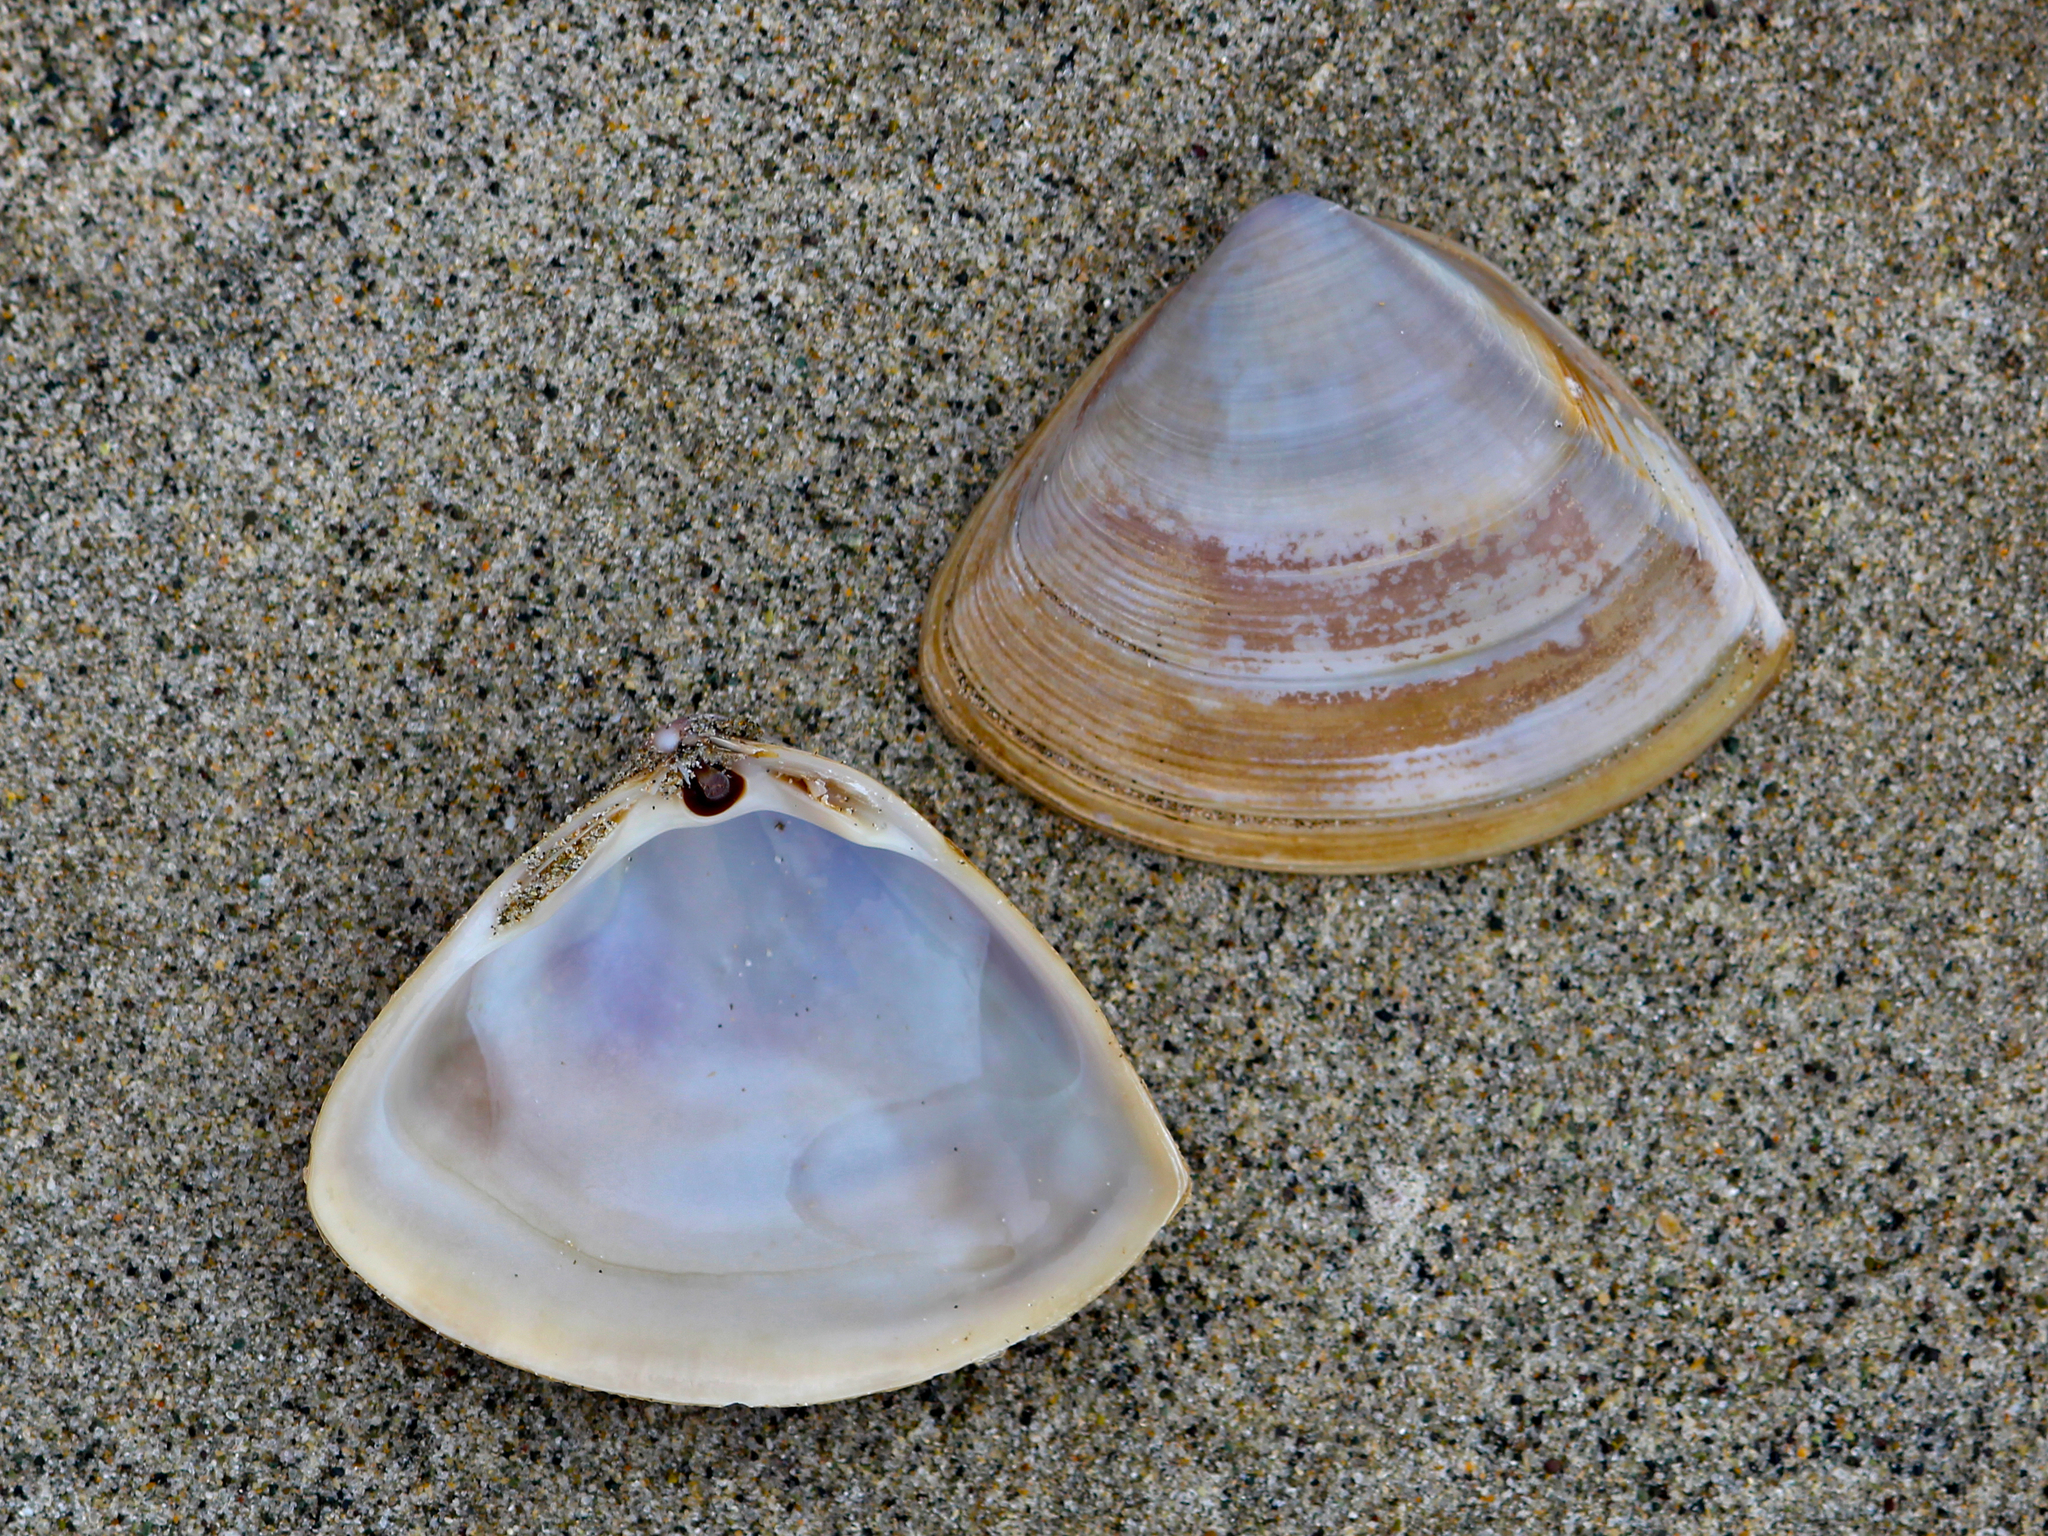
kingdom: Animalia
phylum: Mollusca
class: Bivalvia
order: Venerida
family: Mactridae
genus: Crassula
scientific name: Crassula aequilatera
